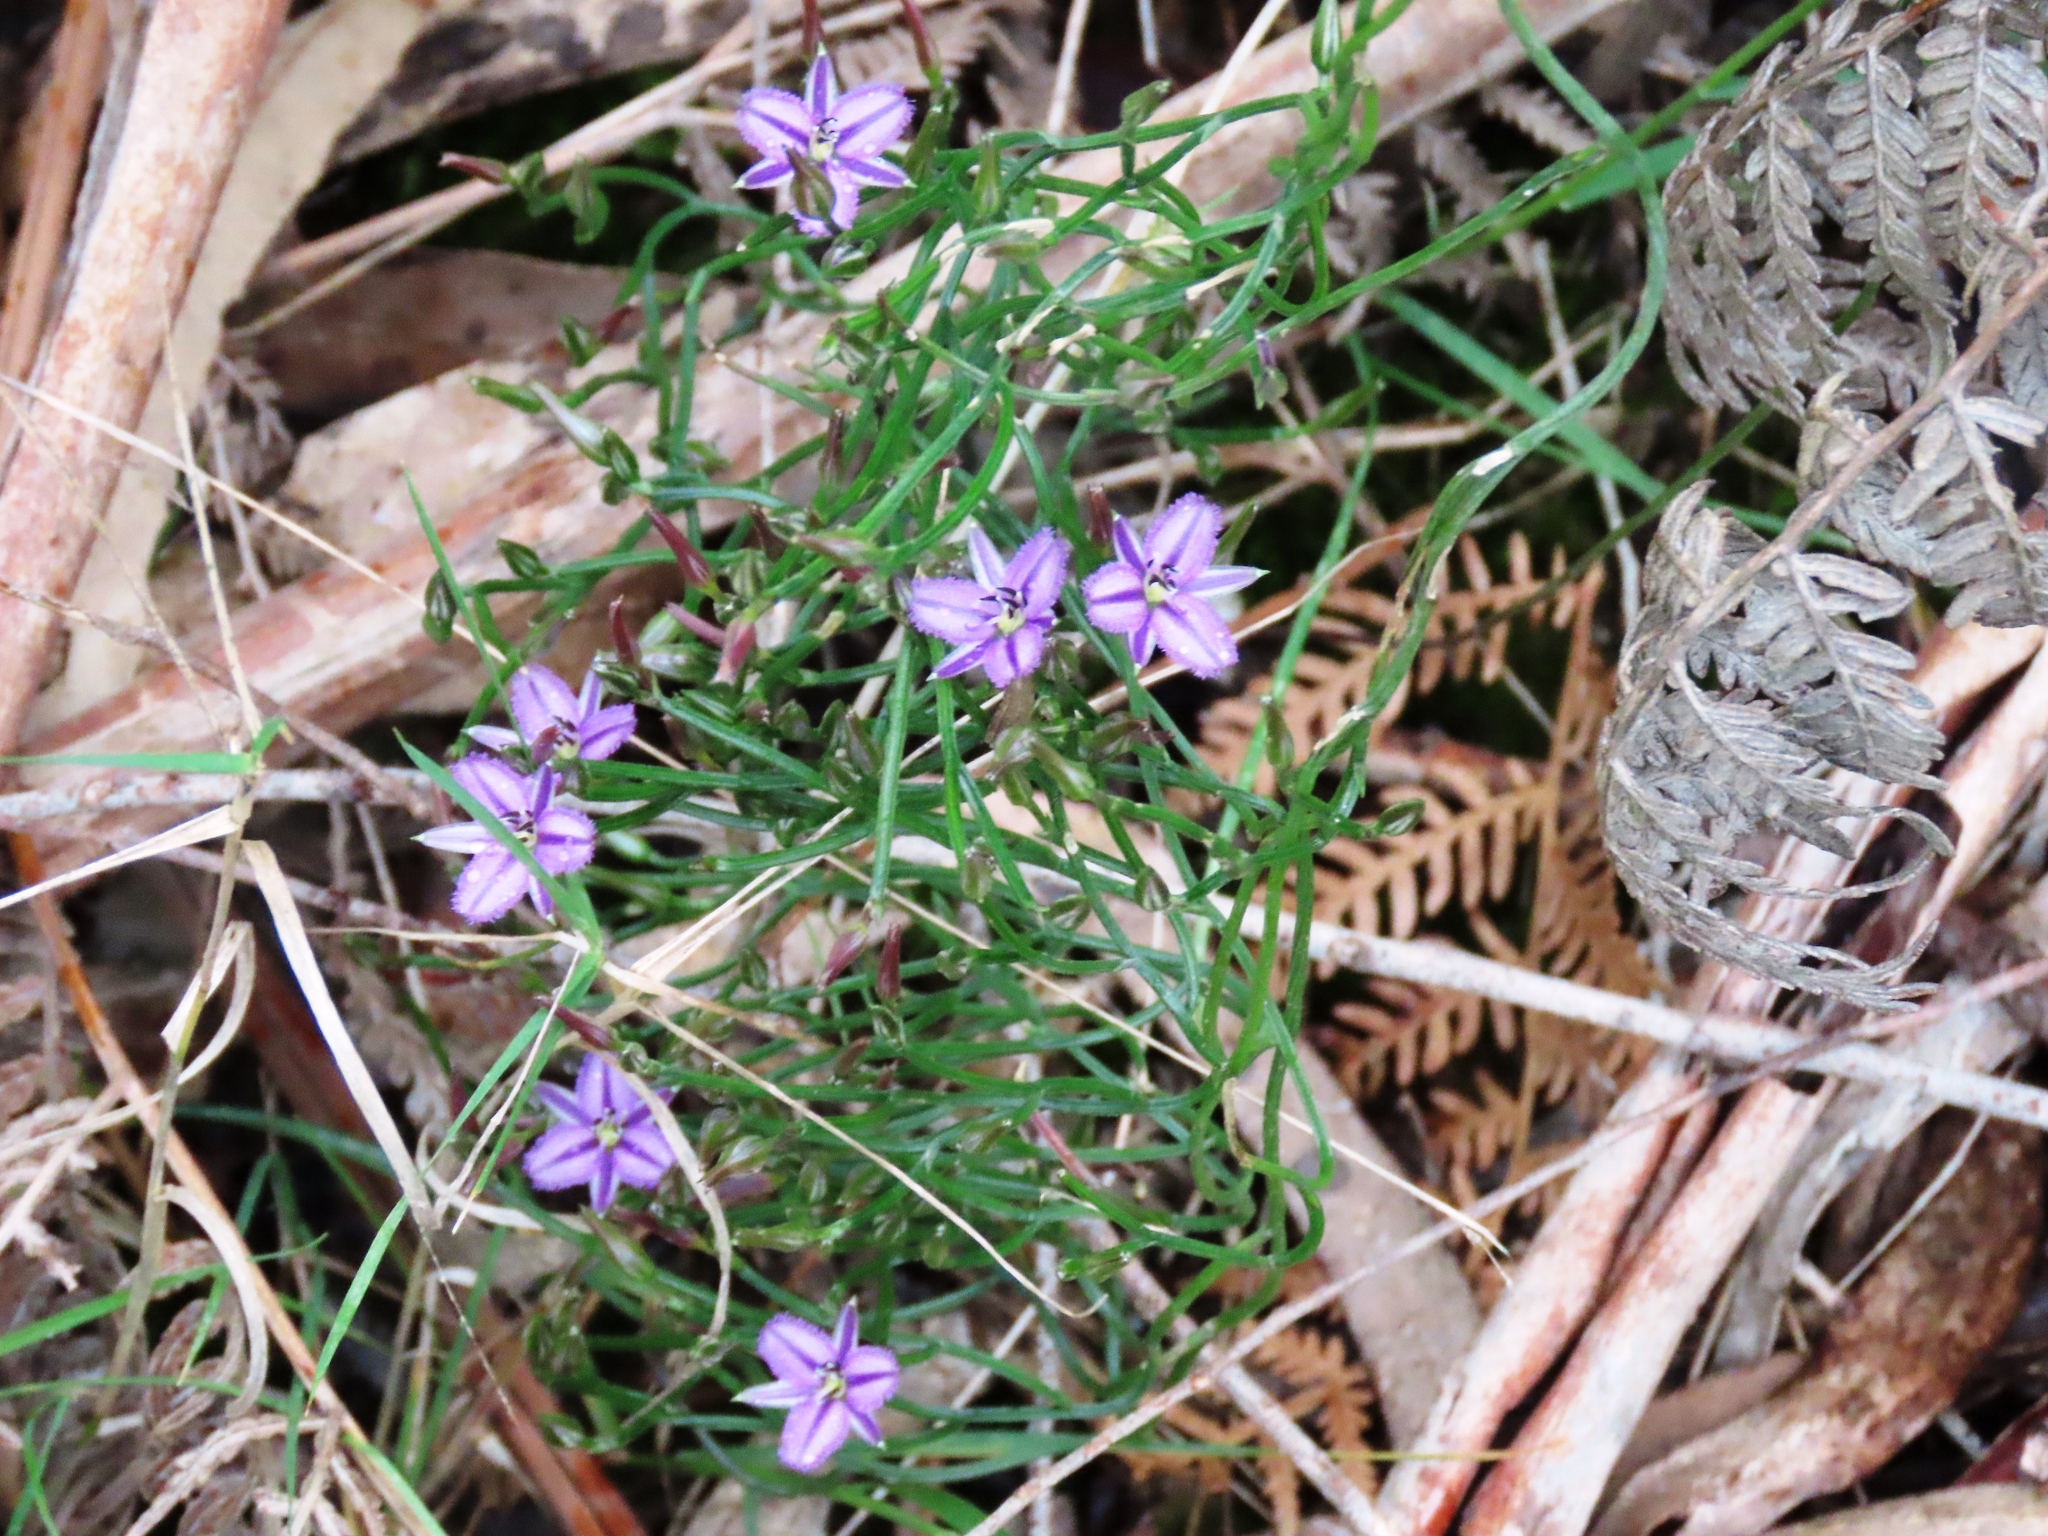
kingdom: Plantae
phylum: Tracheophyta
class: Liliopsida
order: Asparagales
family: Asparagaceae
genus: Thysanotus
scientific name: Thysanotus patersonii
